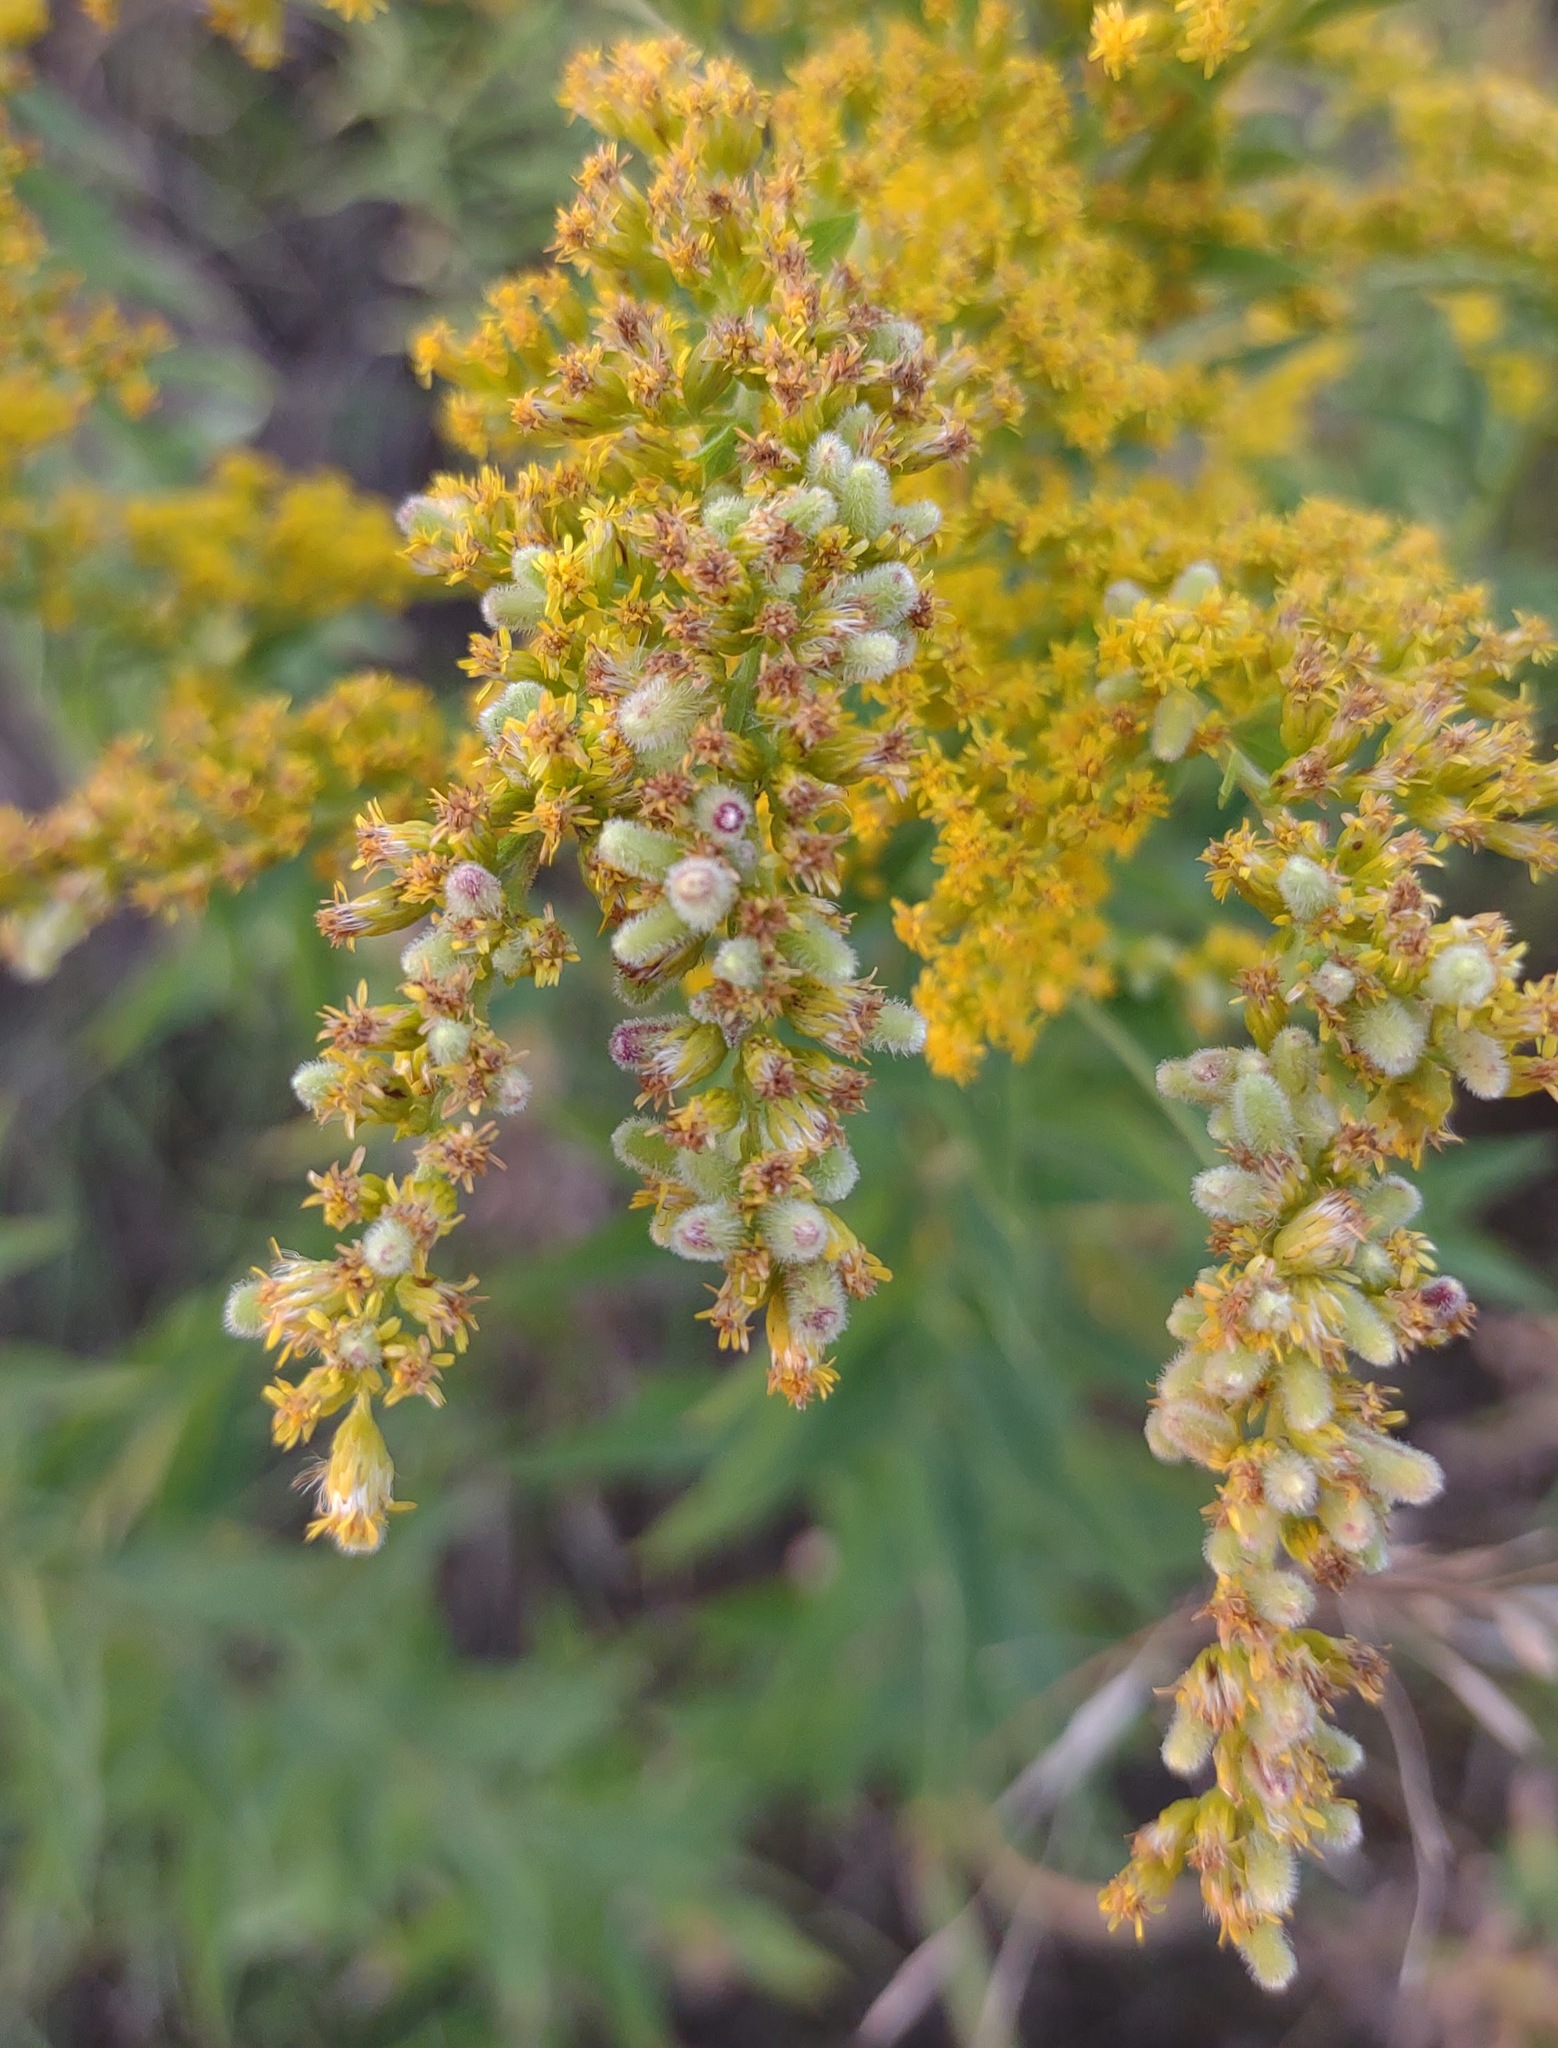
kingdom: Animalia
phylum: Arthropoda
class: Insecta
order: Diptera
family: Cecidomyiidae
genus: Rhopalomyia
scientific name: Rhopalomyia anthophila
